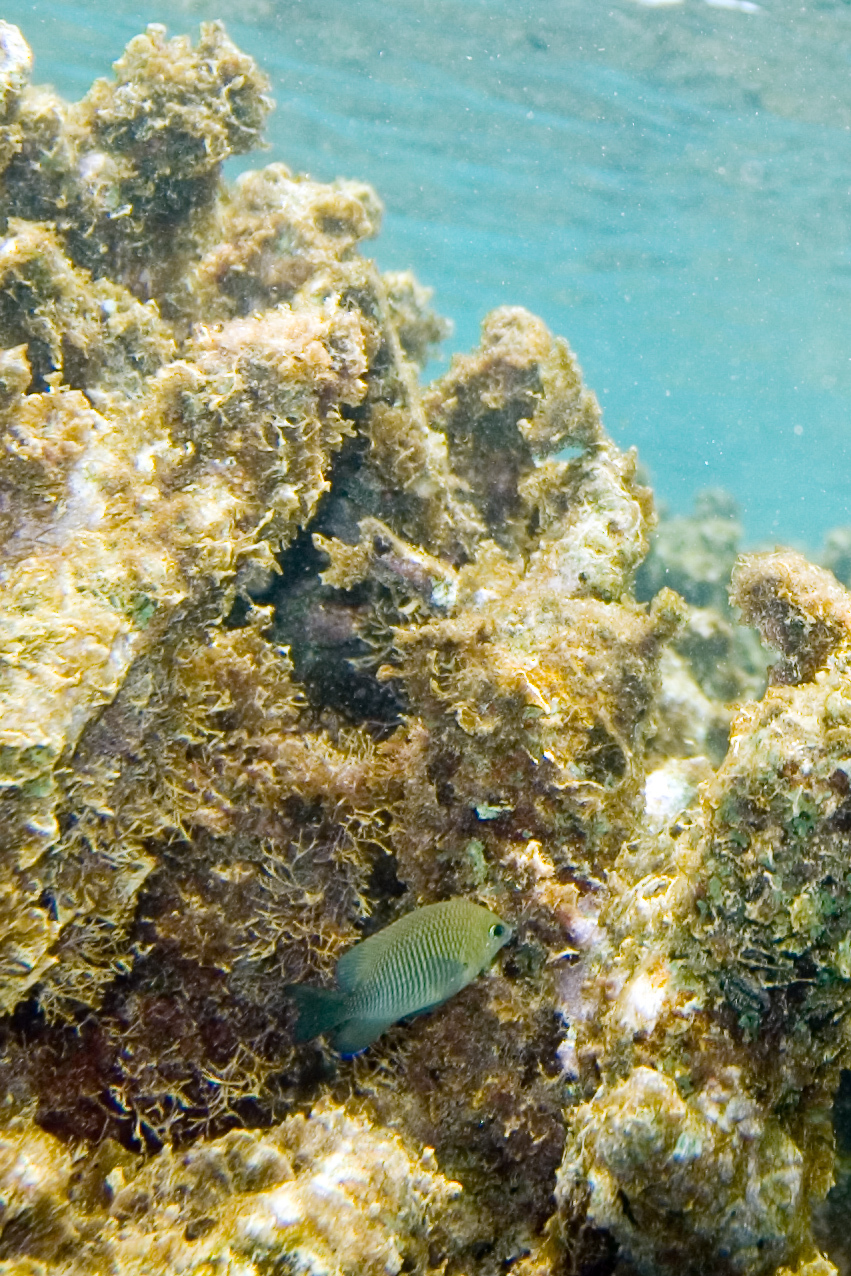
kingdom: Animalia
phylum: Chordata
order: Perciformes
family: Pomacentridae
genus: Stegastes
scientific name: Stegastes diencaeus
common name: Longfin damselfish
